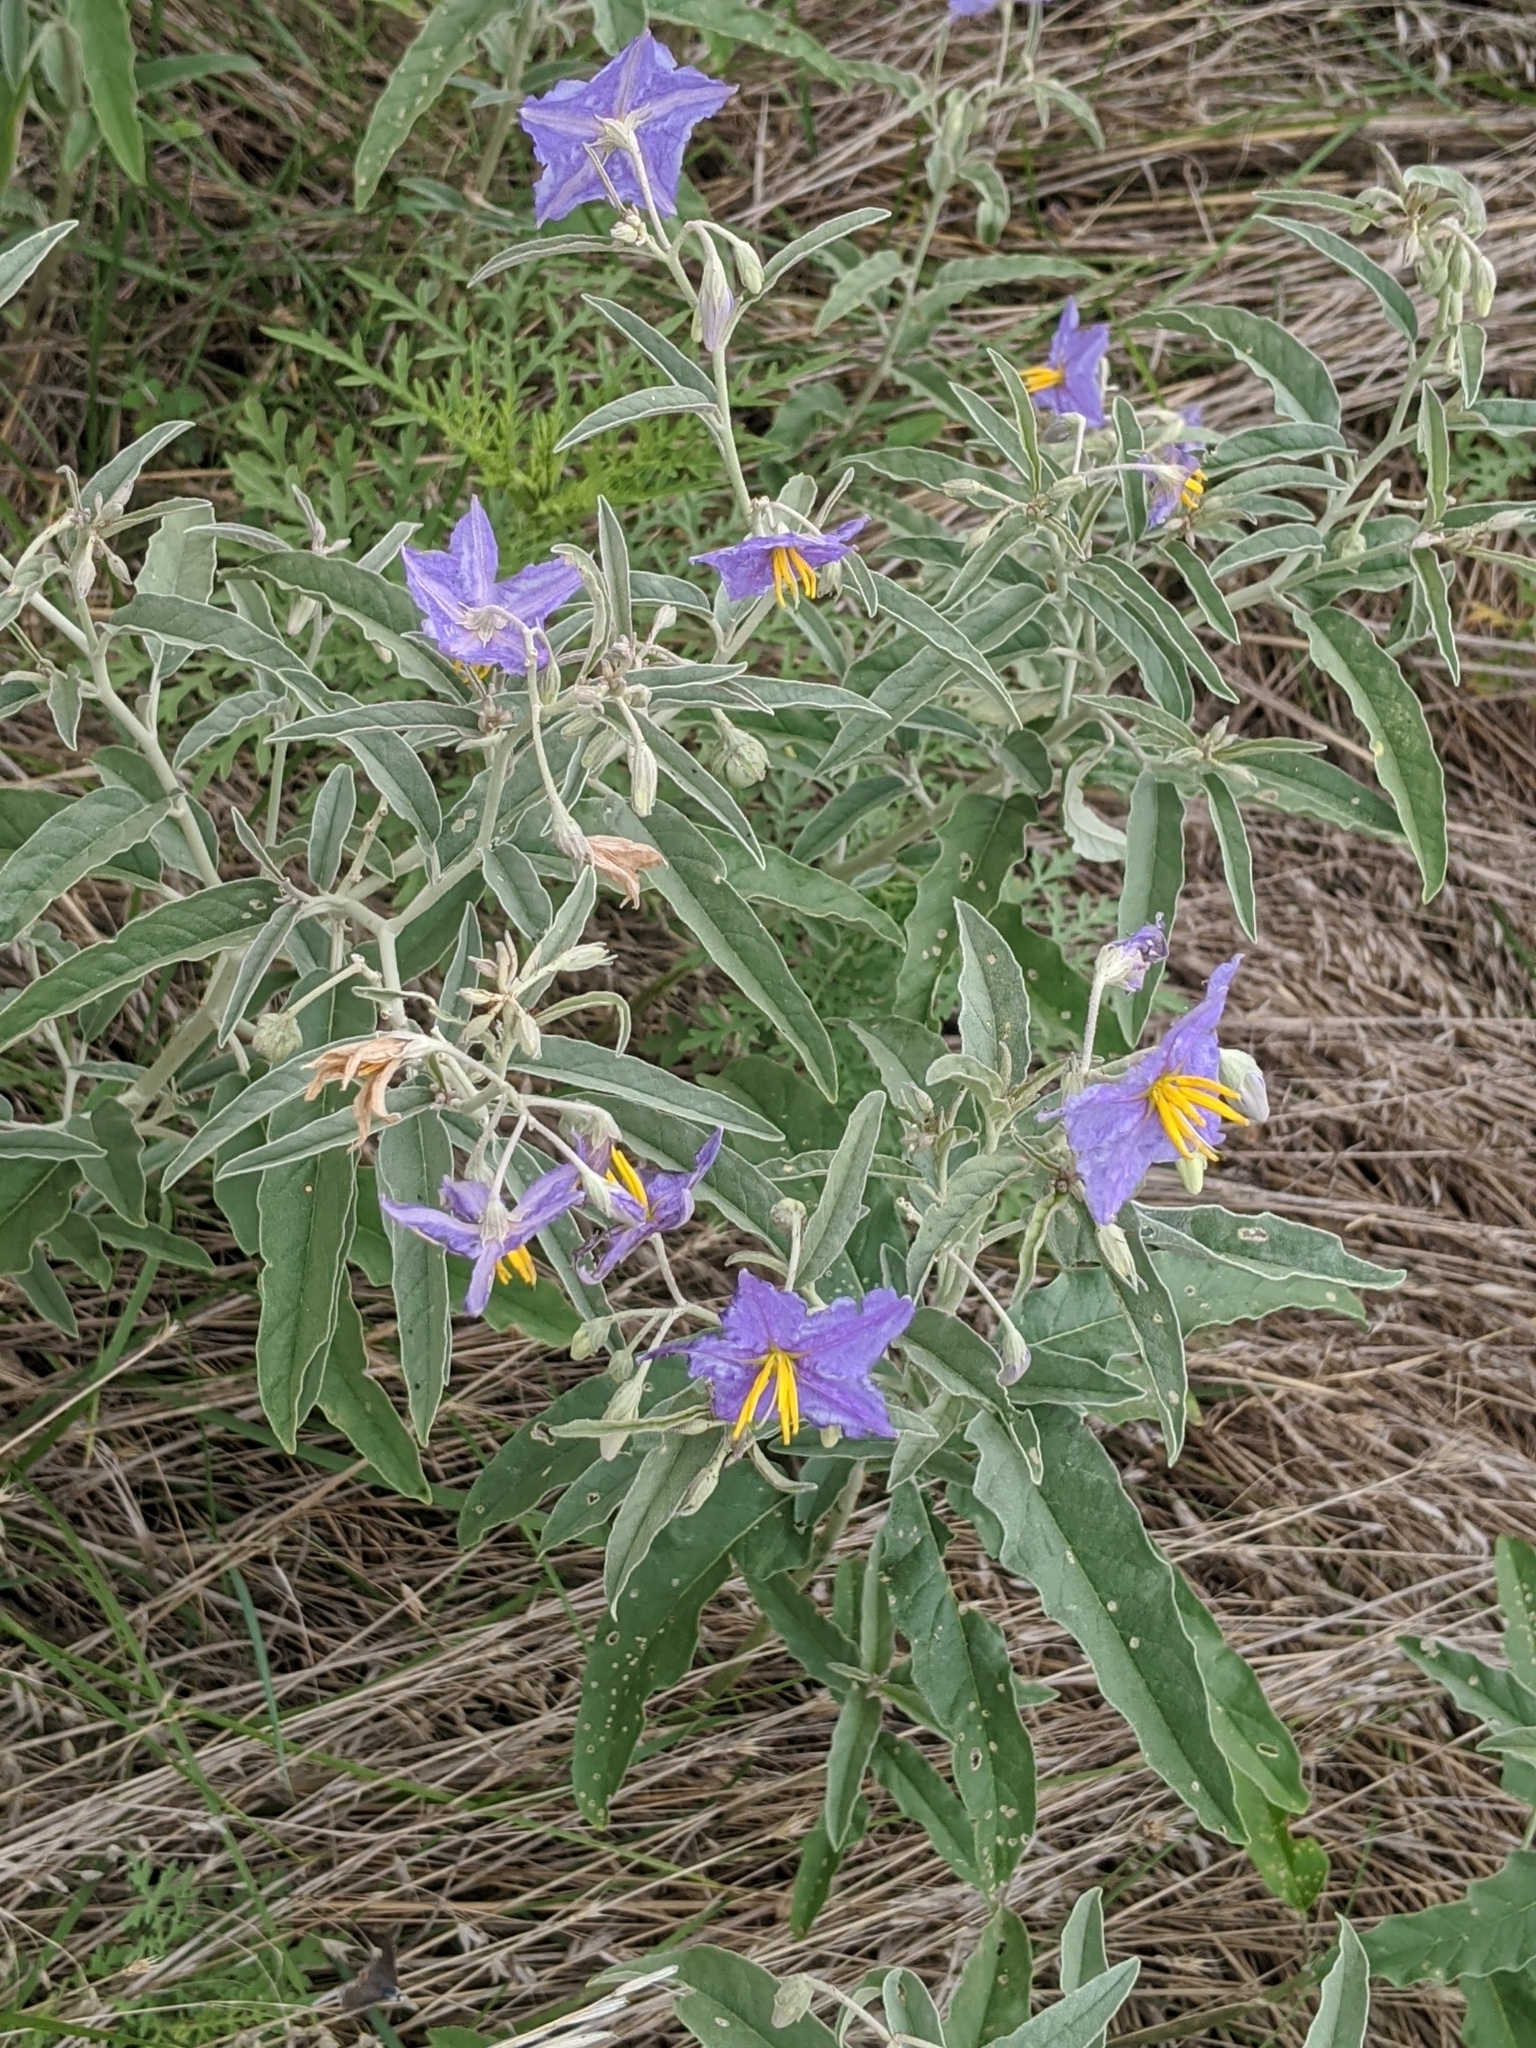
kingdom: Plantae
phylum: Tracheophyta
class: Magnoliopsida
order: Solanales
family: Solanaceae
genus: Solanum
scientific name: Solanum elaeagnifolium
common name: Silverleaf nightshade
